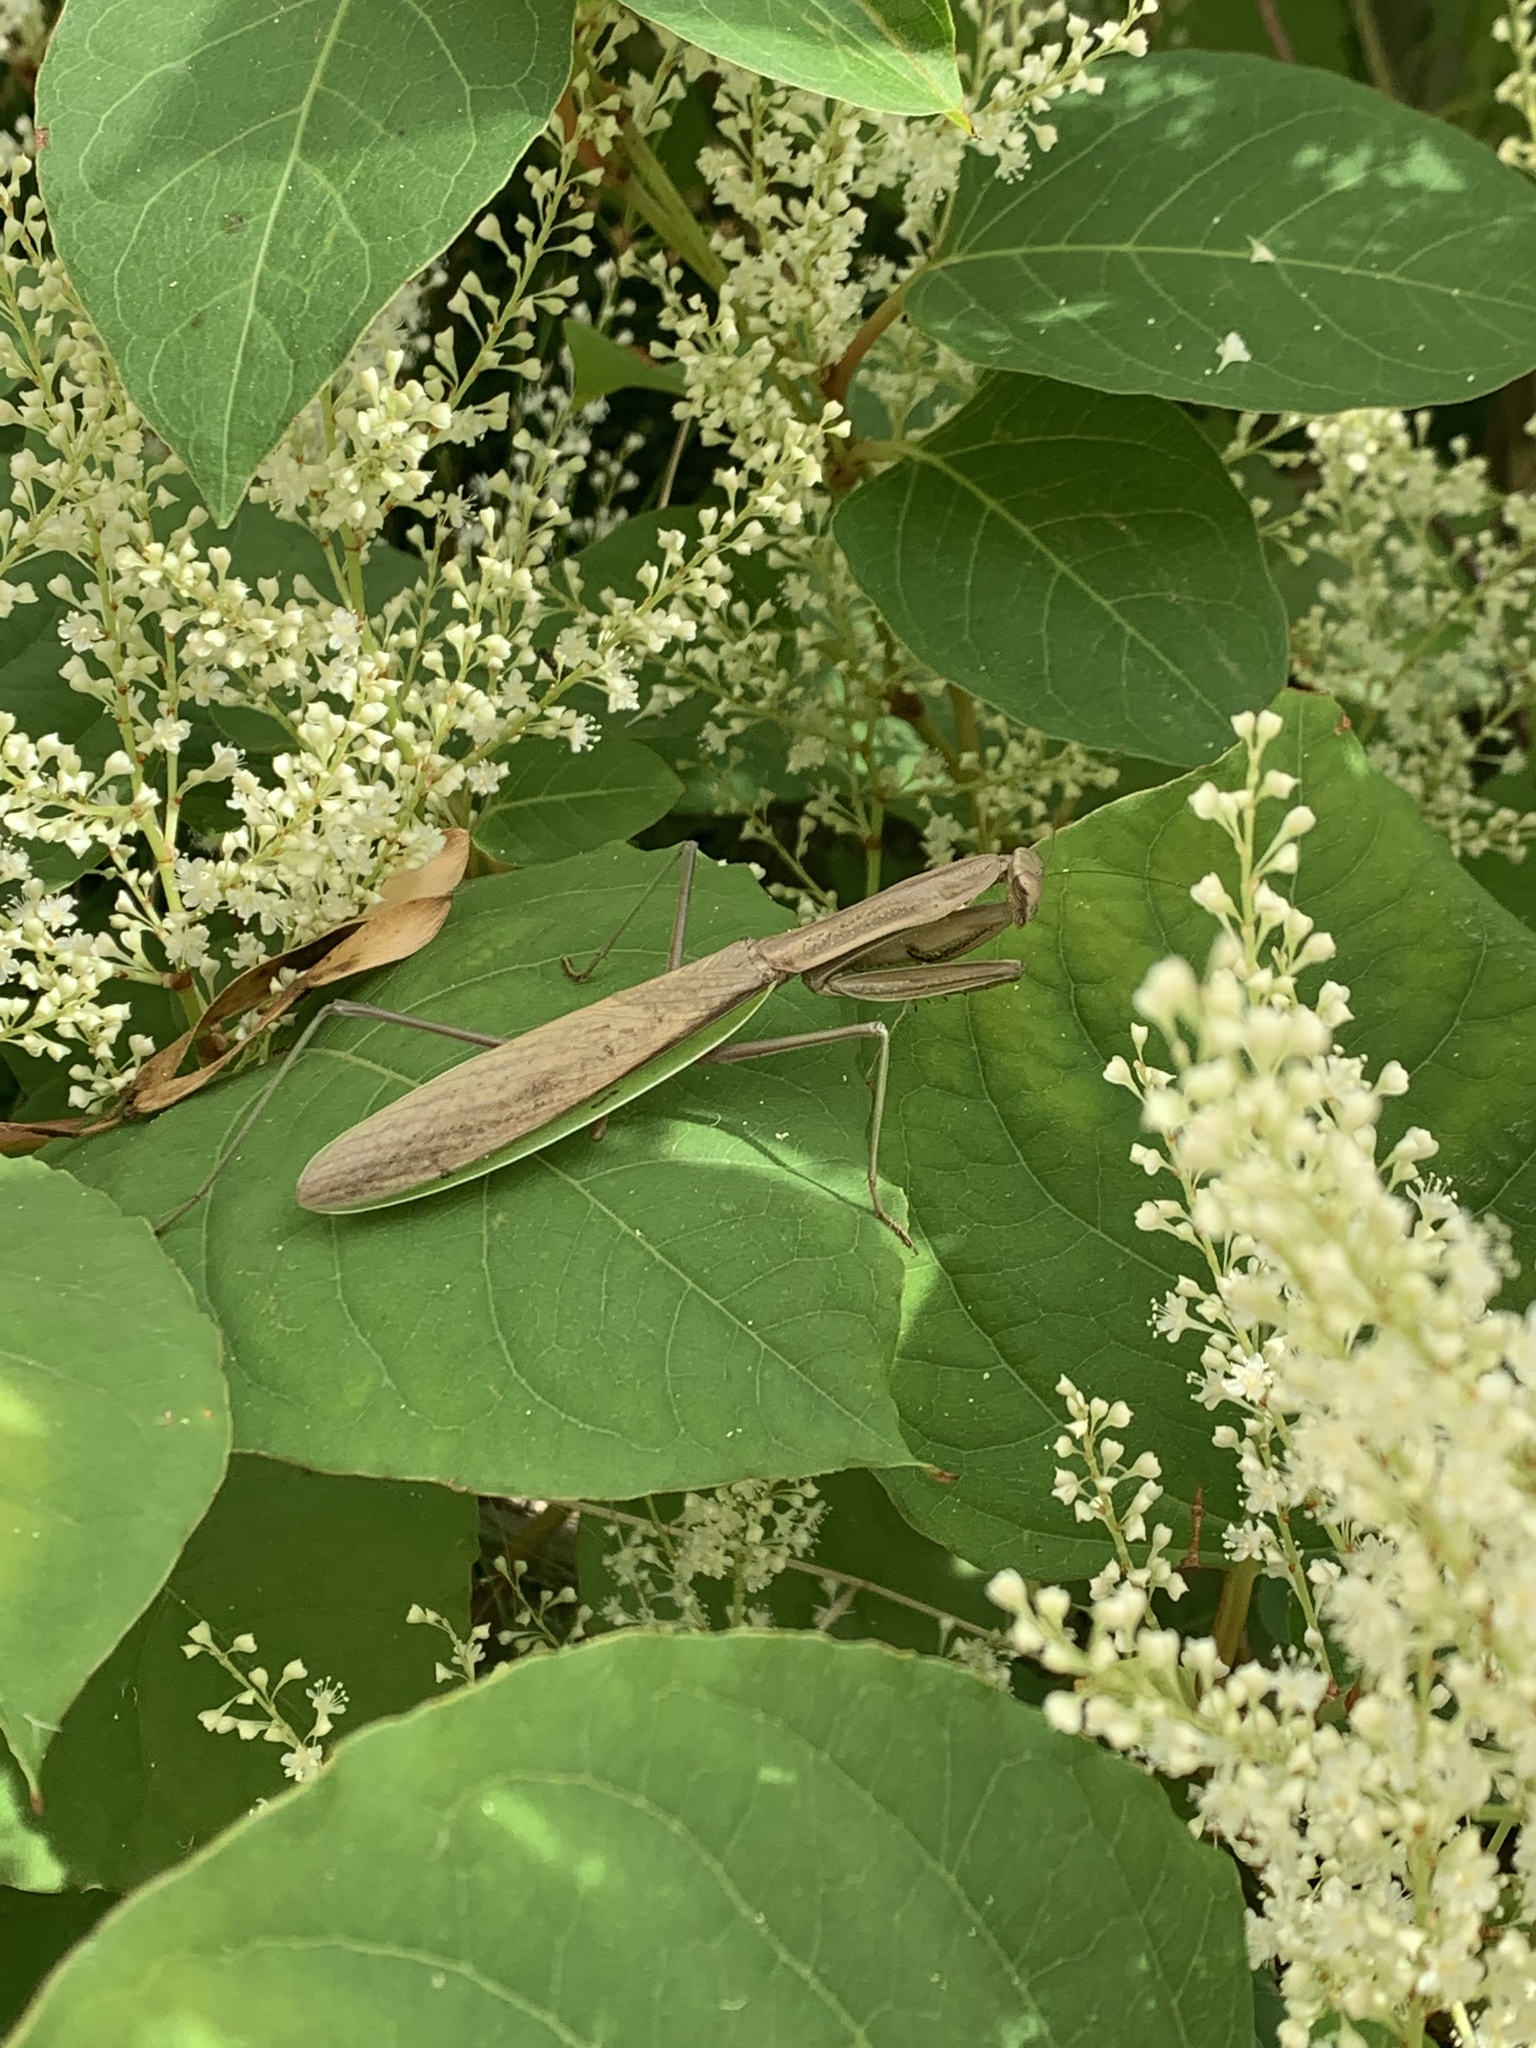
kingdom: Animalia
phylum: Arthropoda
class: Insecta
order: Mantodea
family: Mantidae
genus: Tenodera
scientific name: Tenodera sinensis
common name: Chinese mantis
